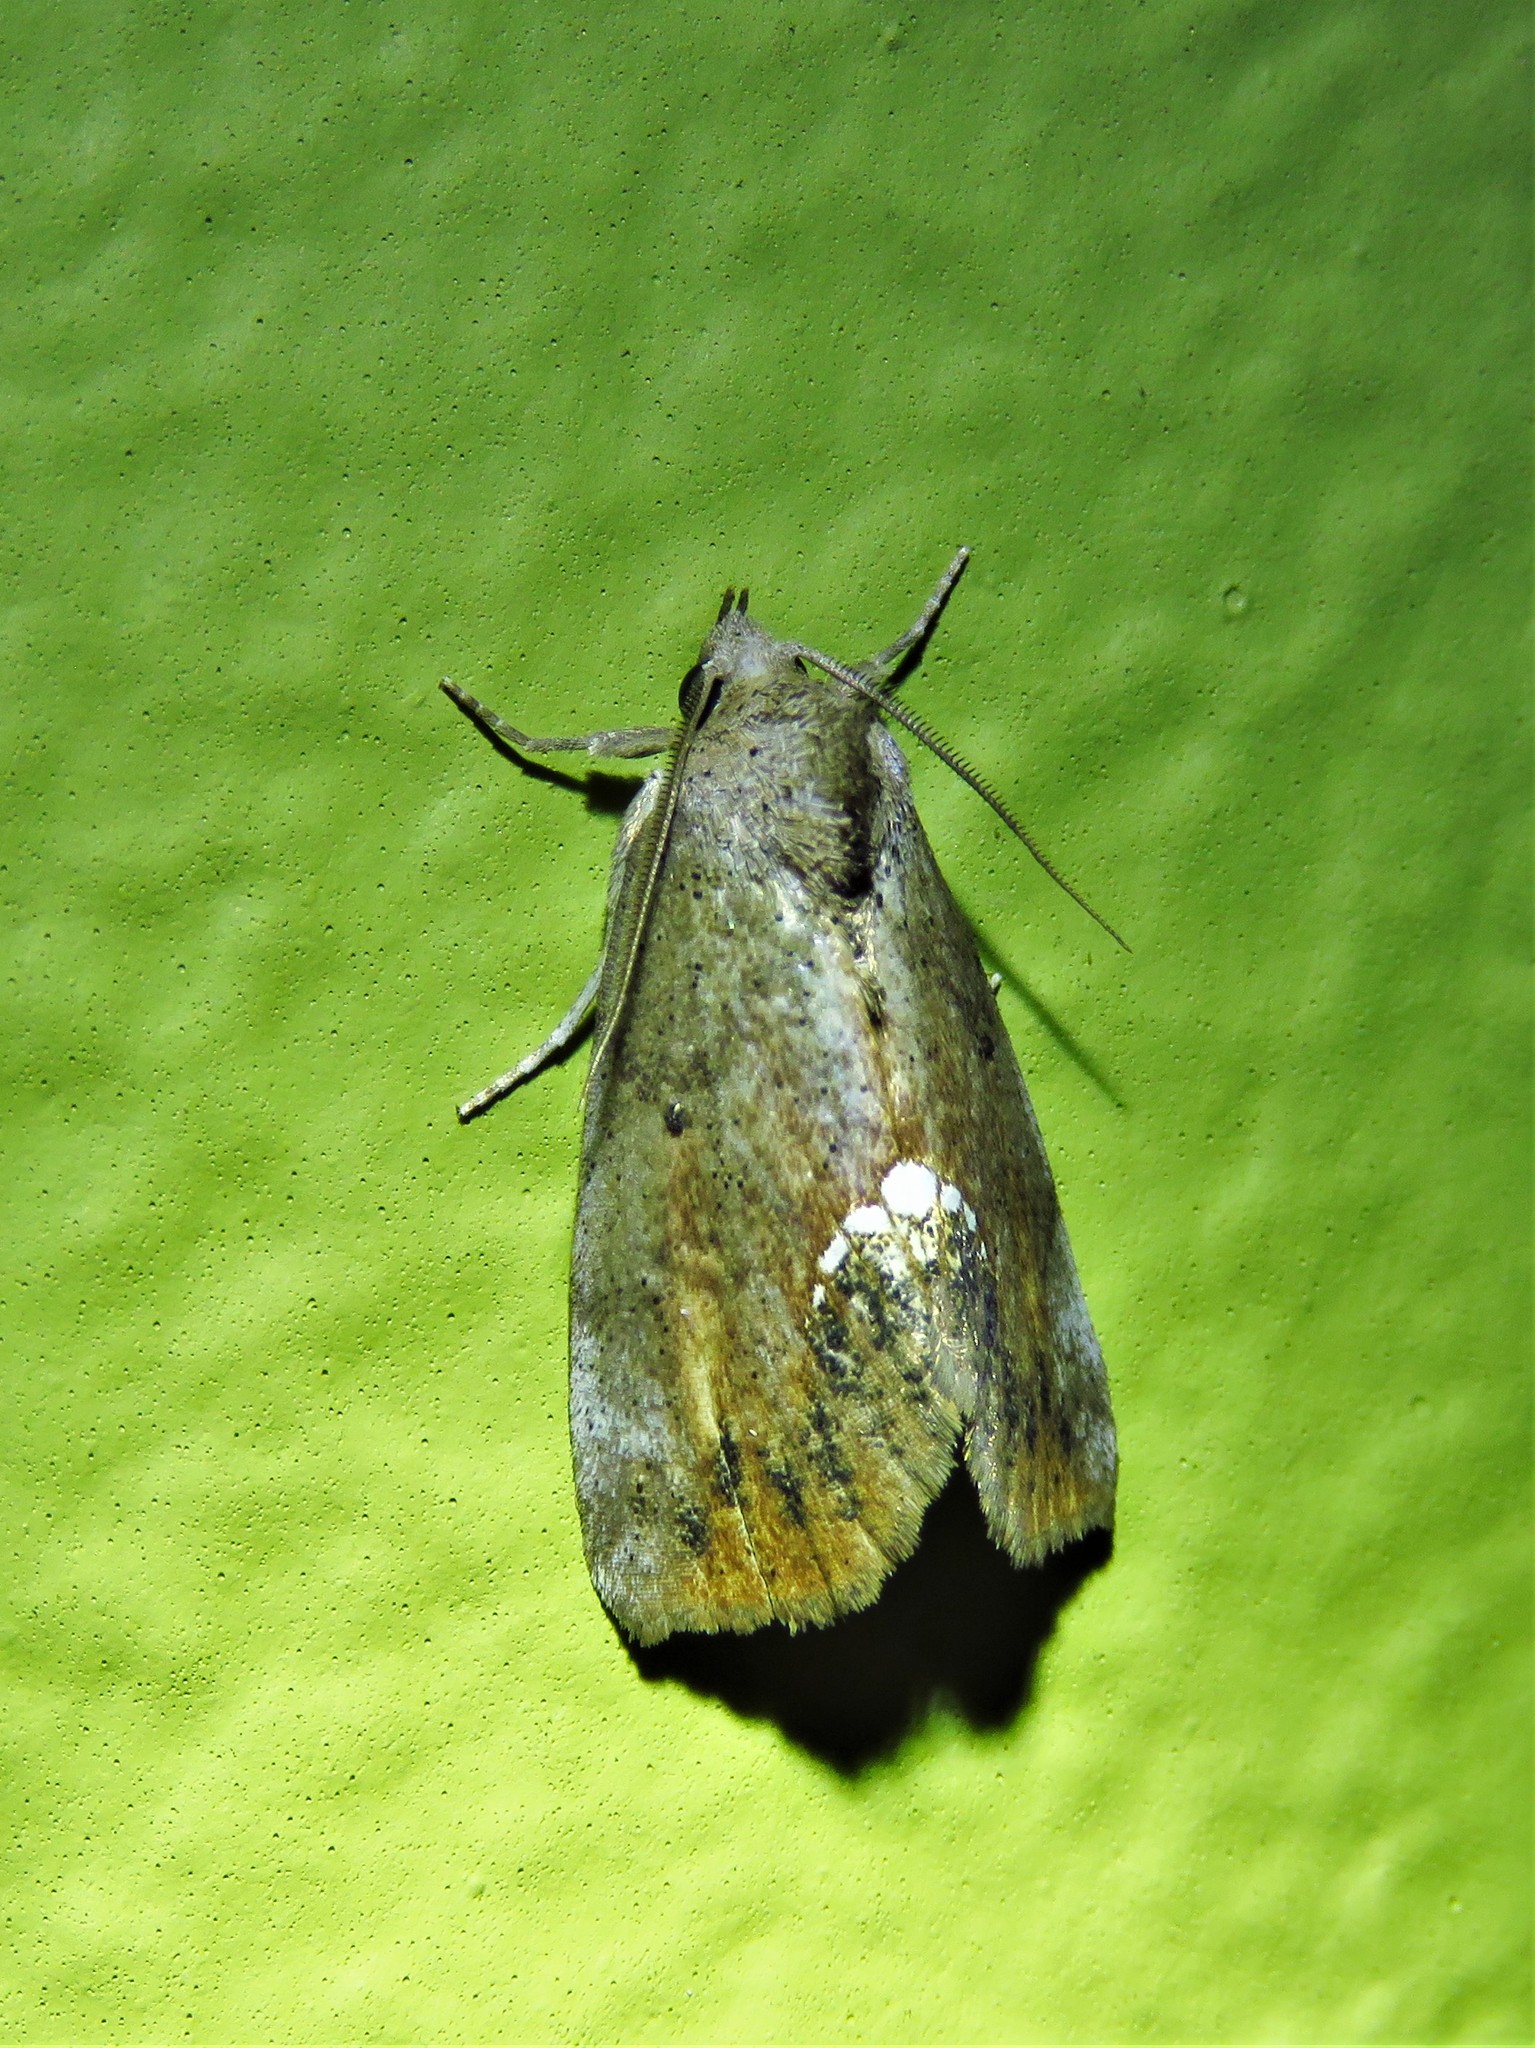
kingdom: Animalia
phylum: Arthropoda
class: Insecta
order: Lepidoptera
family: Erebidae
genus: Hypsoropha
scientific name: Hypsoropha hormos
